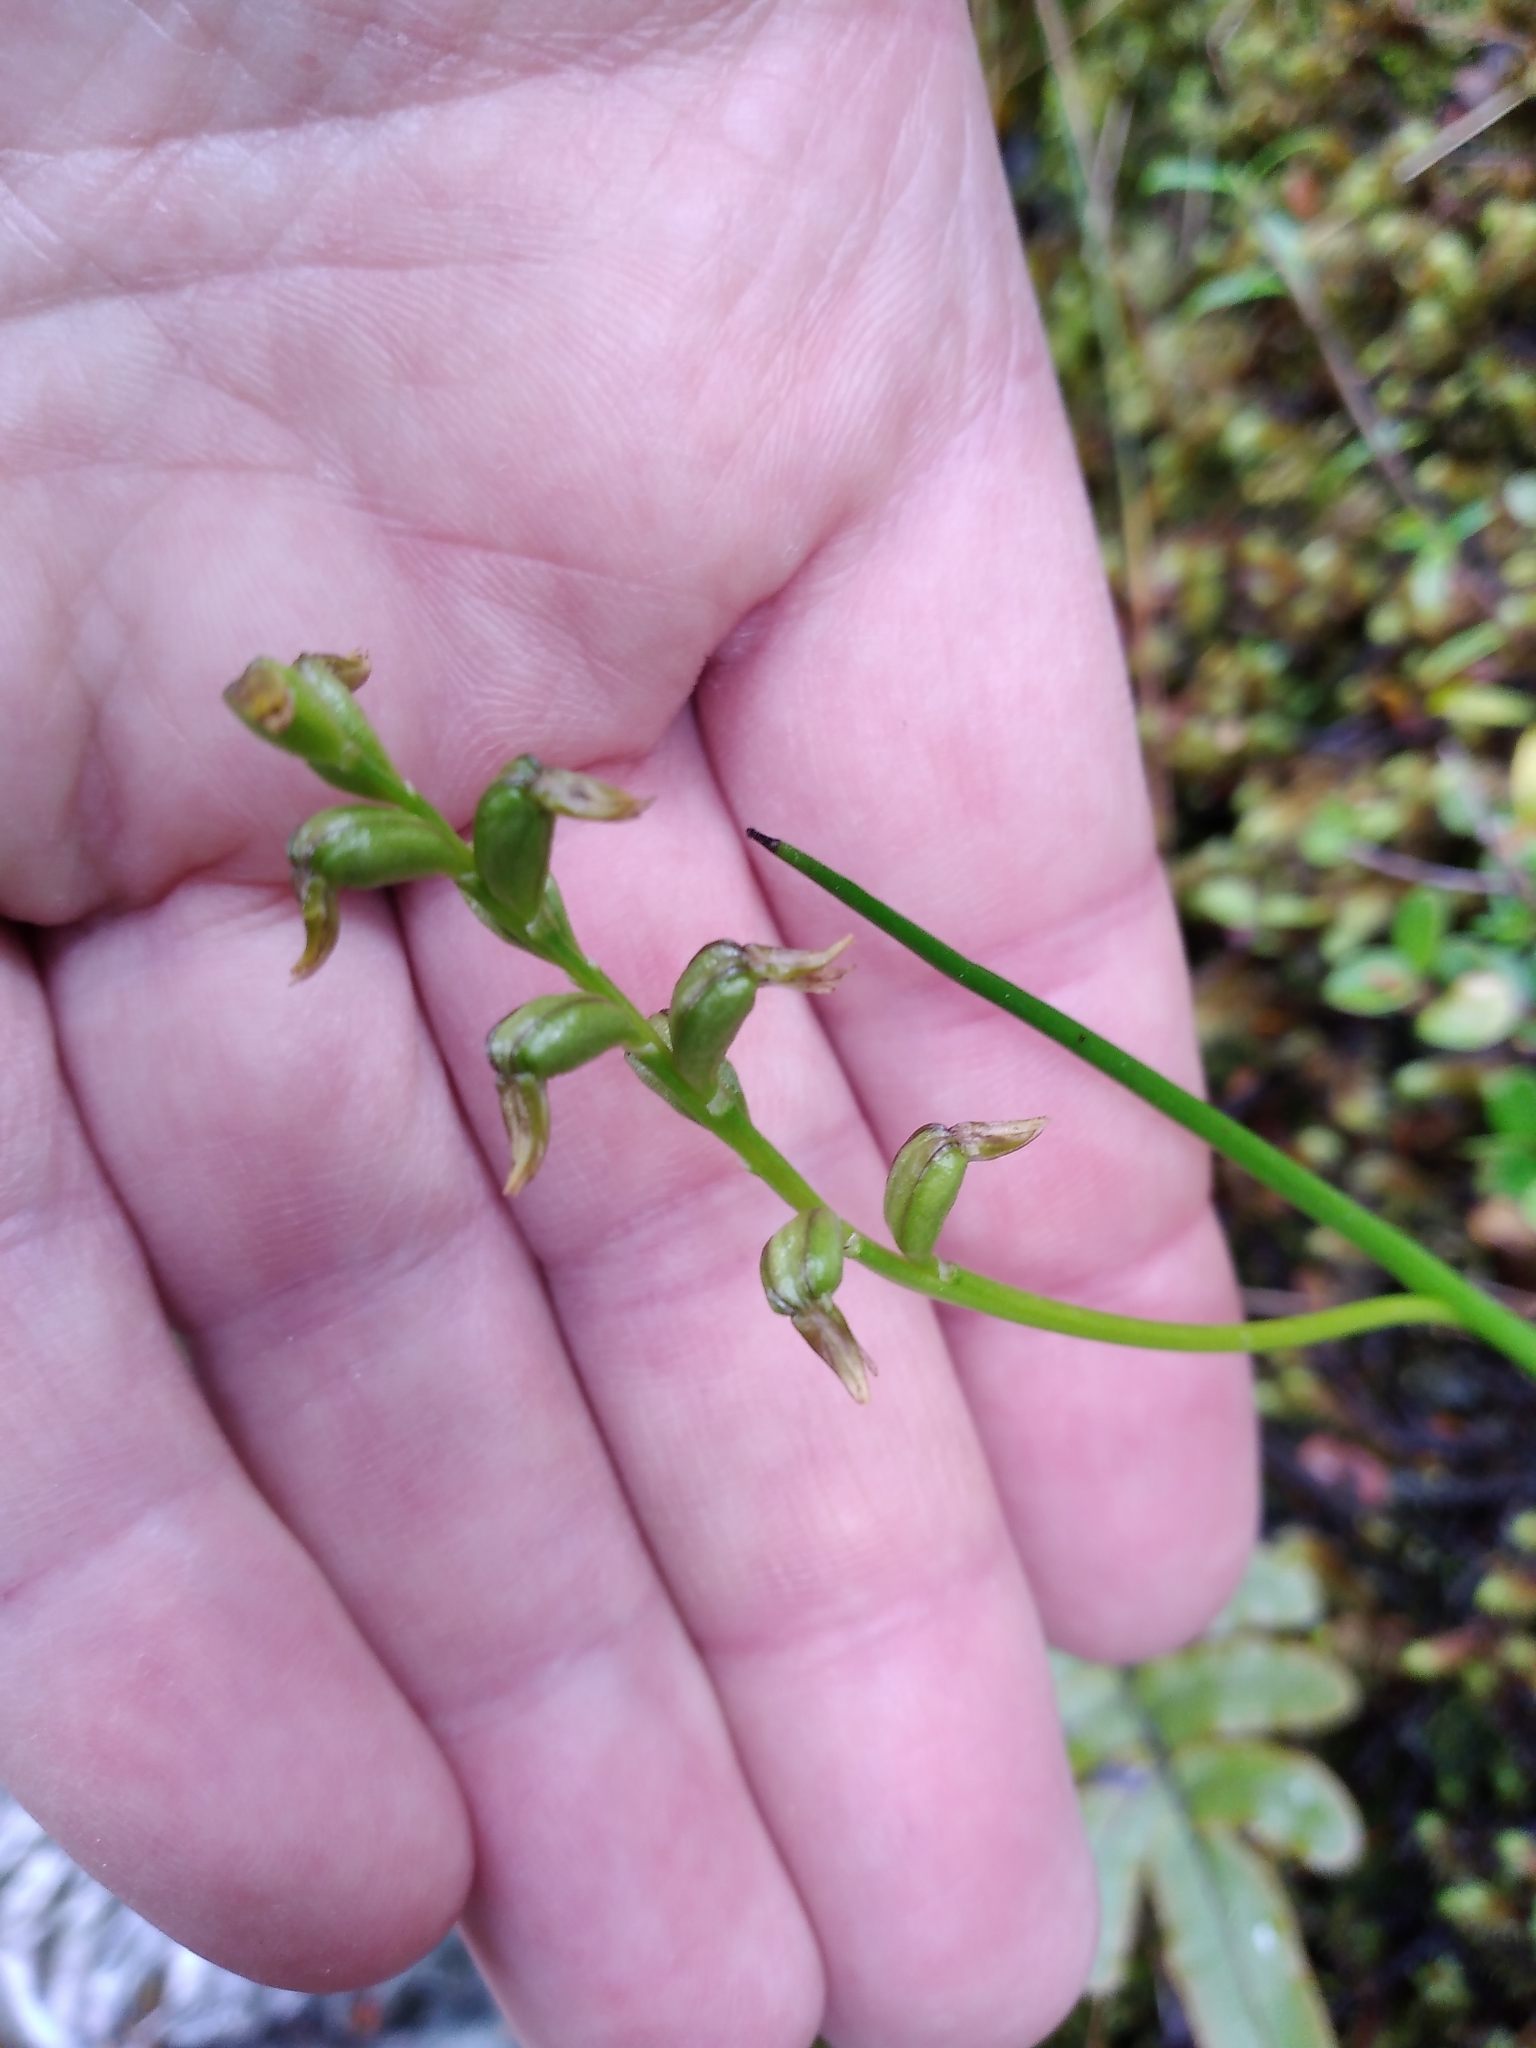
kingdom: Plantae
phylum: Tracheophyta
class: Liliopsida
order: Asparagales
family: Orchidaceae
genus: Prasophyllum
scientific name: Prasophyllum colensoi
